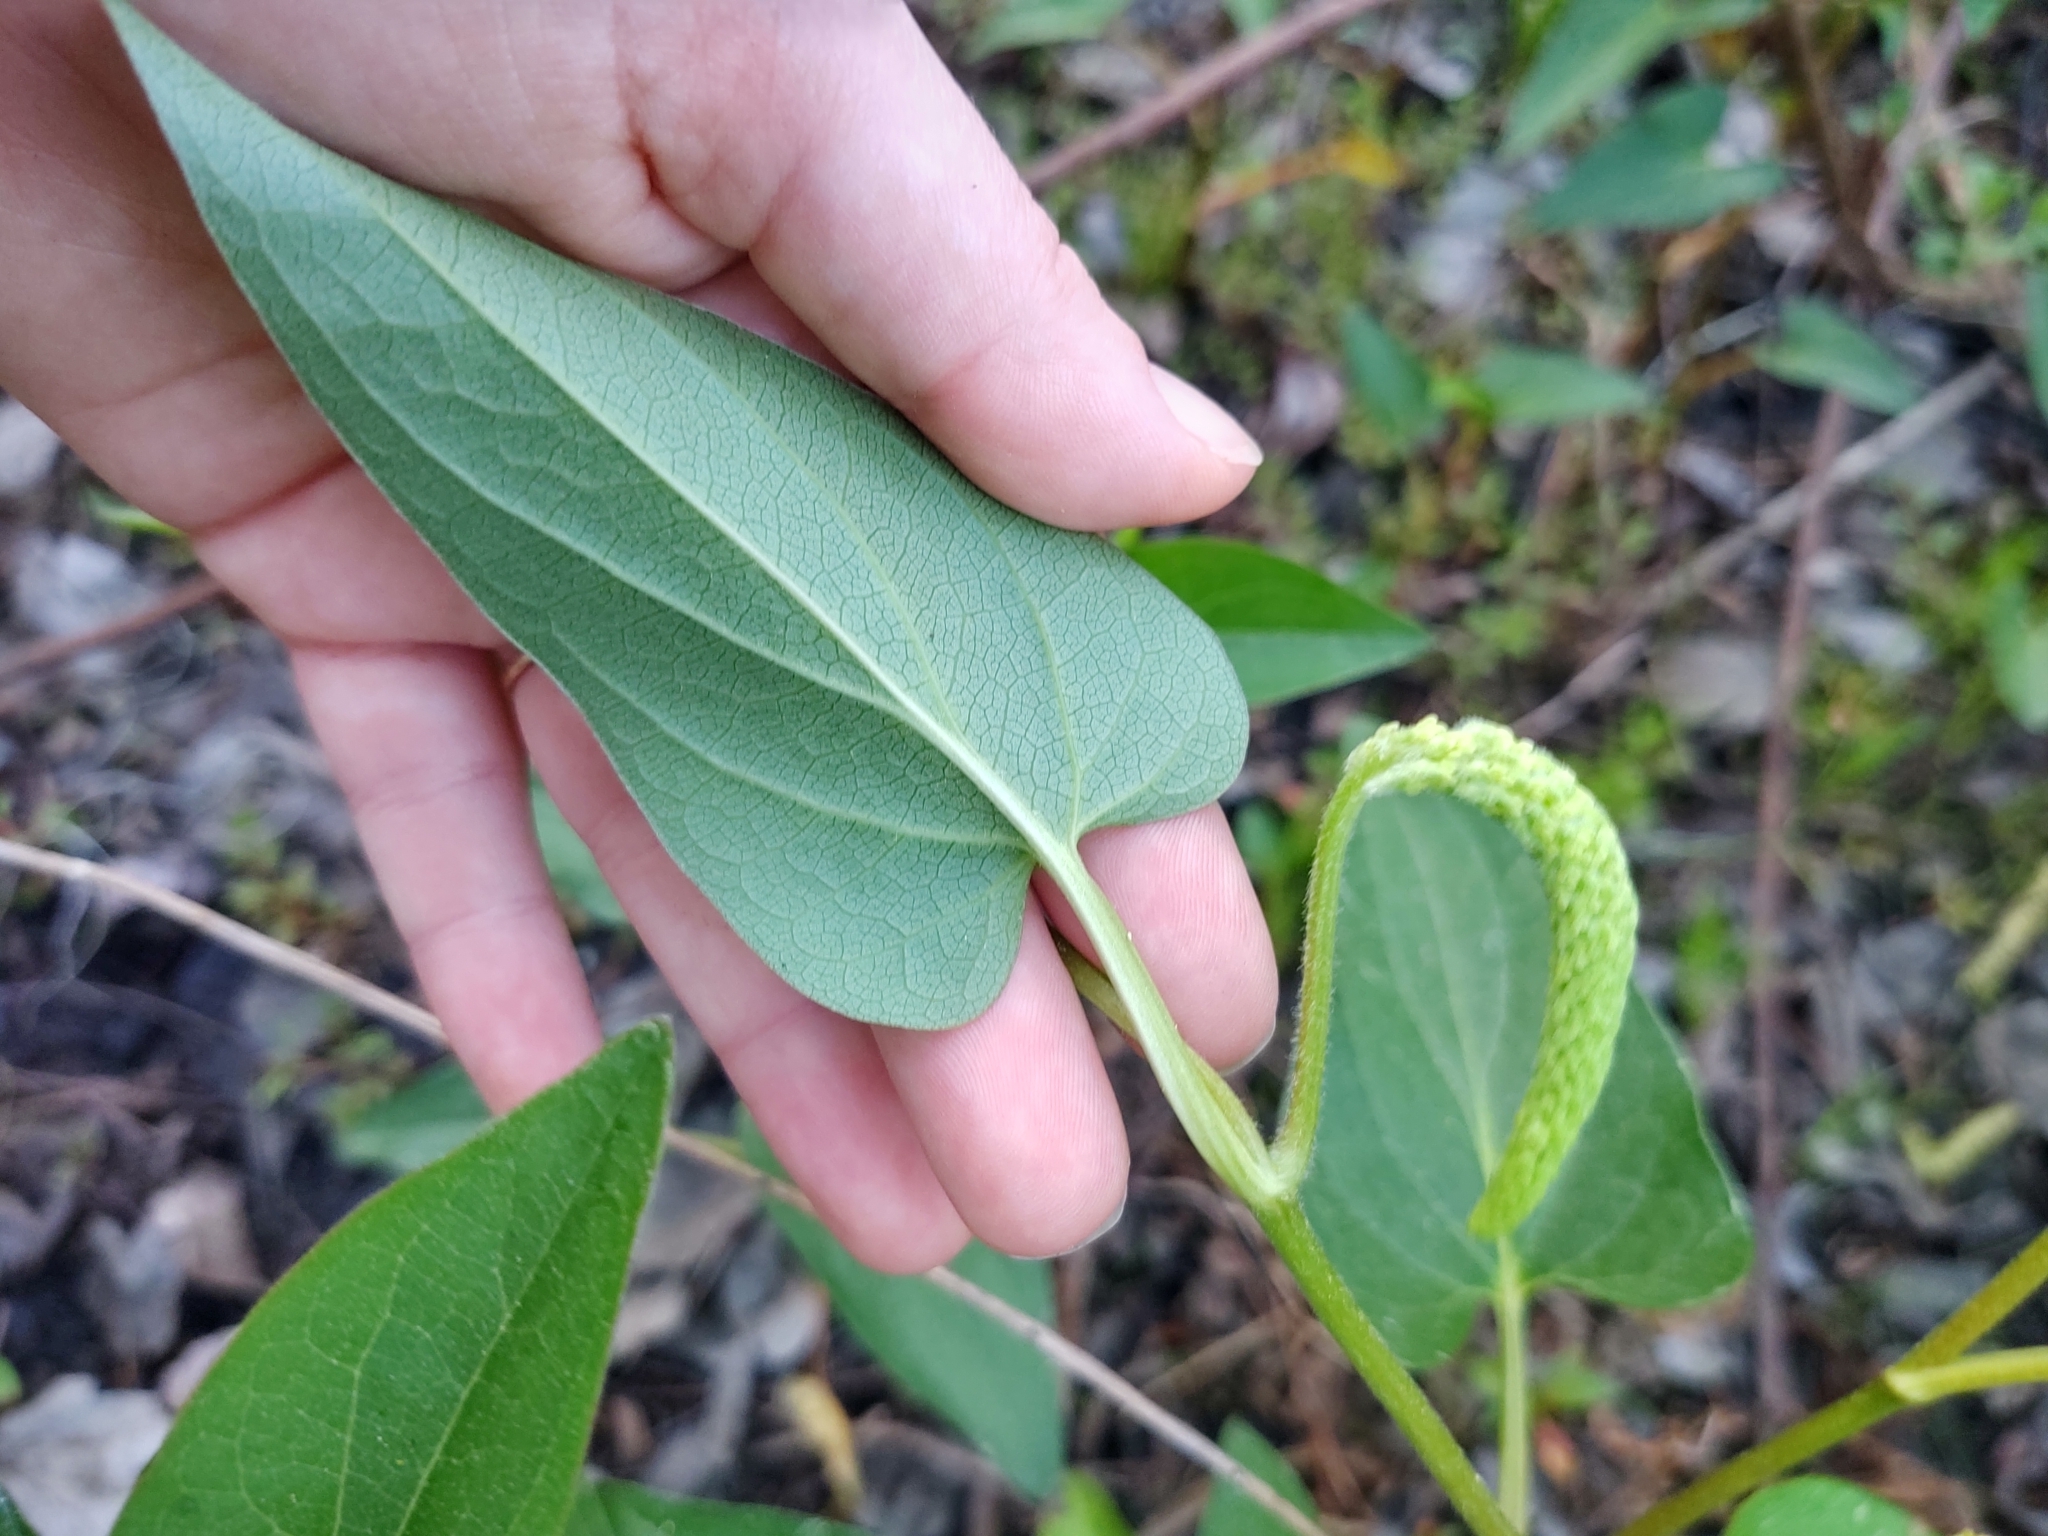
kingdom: Plantae
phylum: Tracheophyta
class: Magnoliopsida
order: Piperales
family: Saururaceae
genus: Saururus
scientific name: Saururus cernuus
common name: Lizard's-tail
